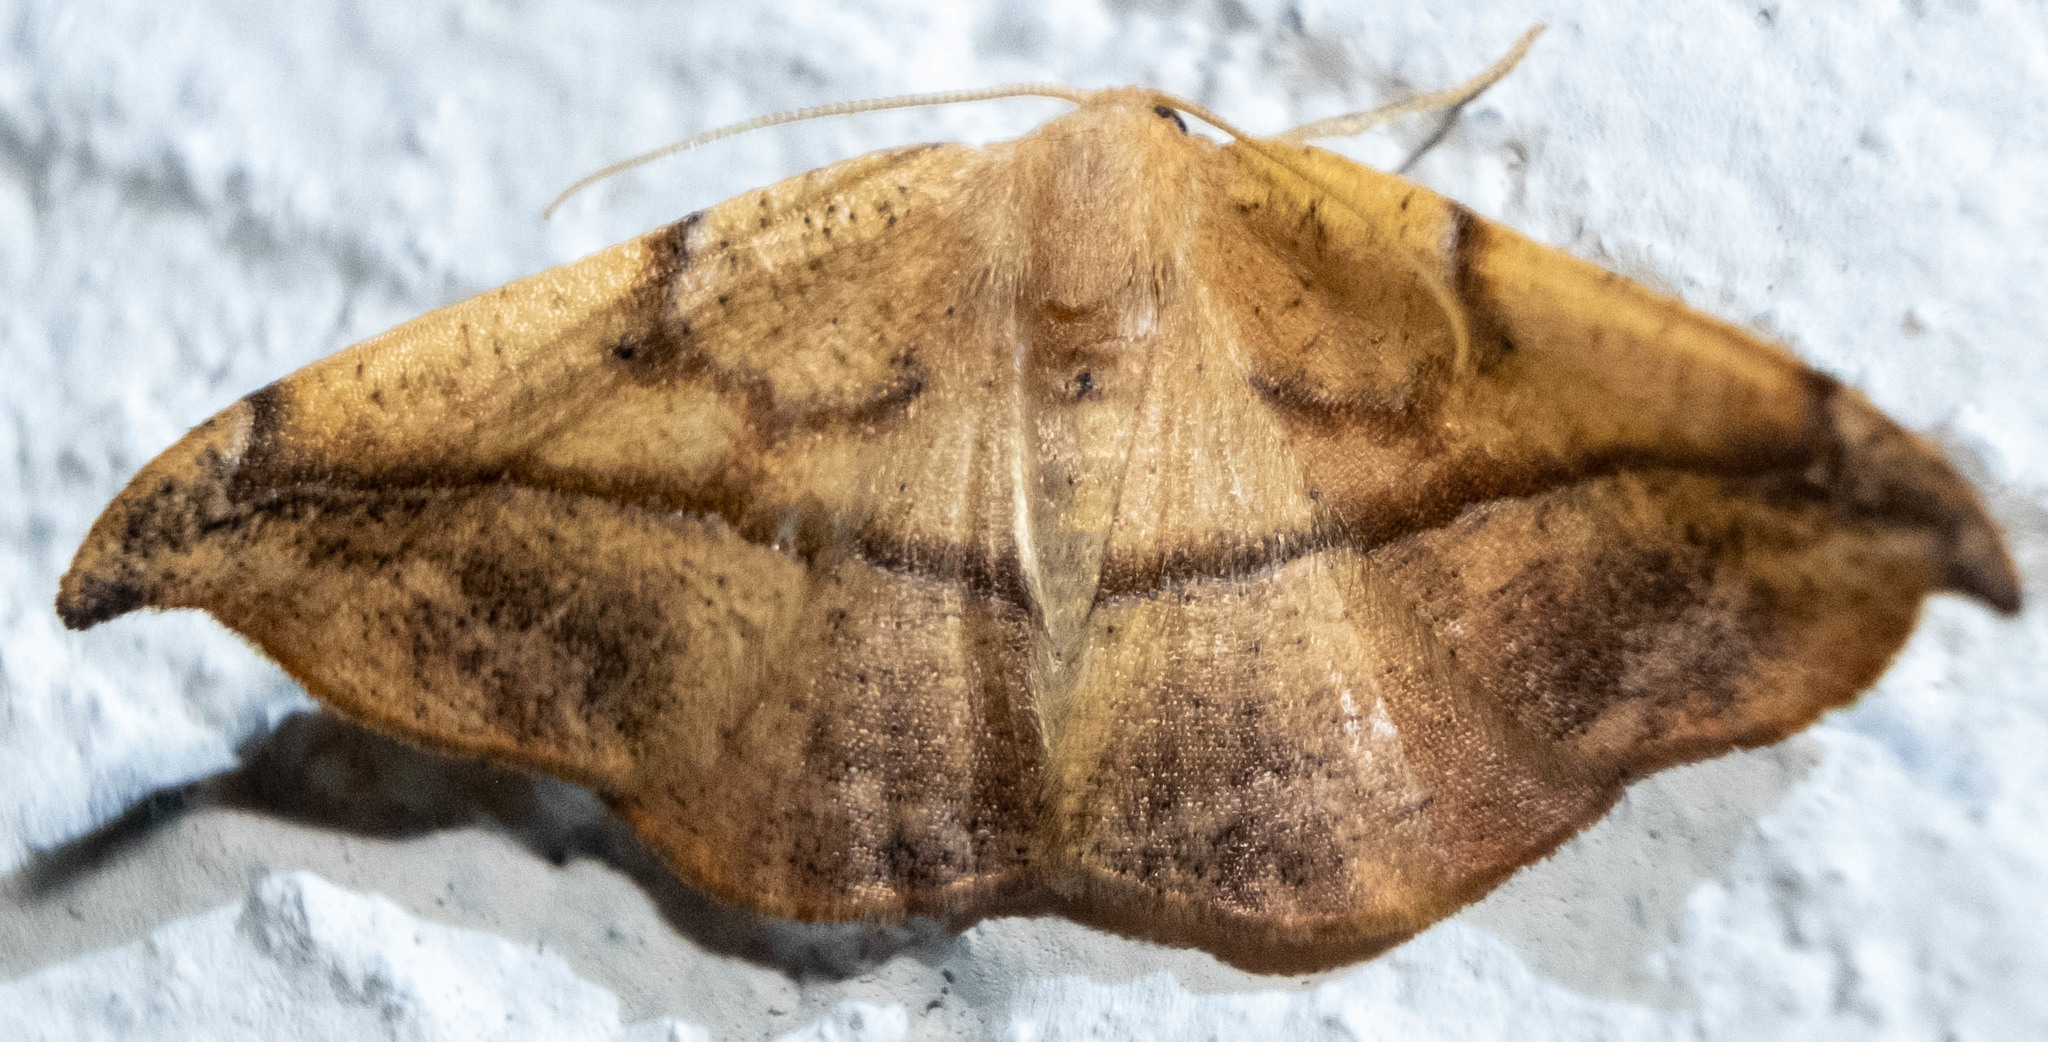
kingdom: Animalia
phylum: Arthropoda
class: Insecta
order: Lepidoptera
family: Geometridae
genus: Patalene
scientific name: Patalene olyzonaria
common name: Juniper geometer moth
